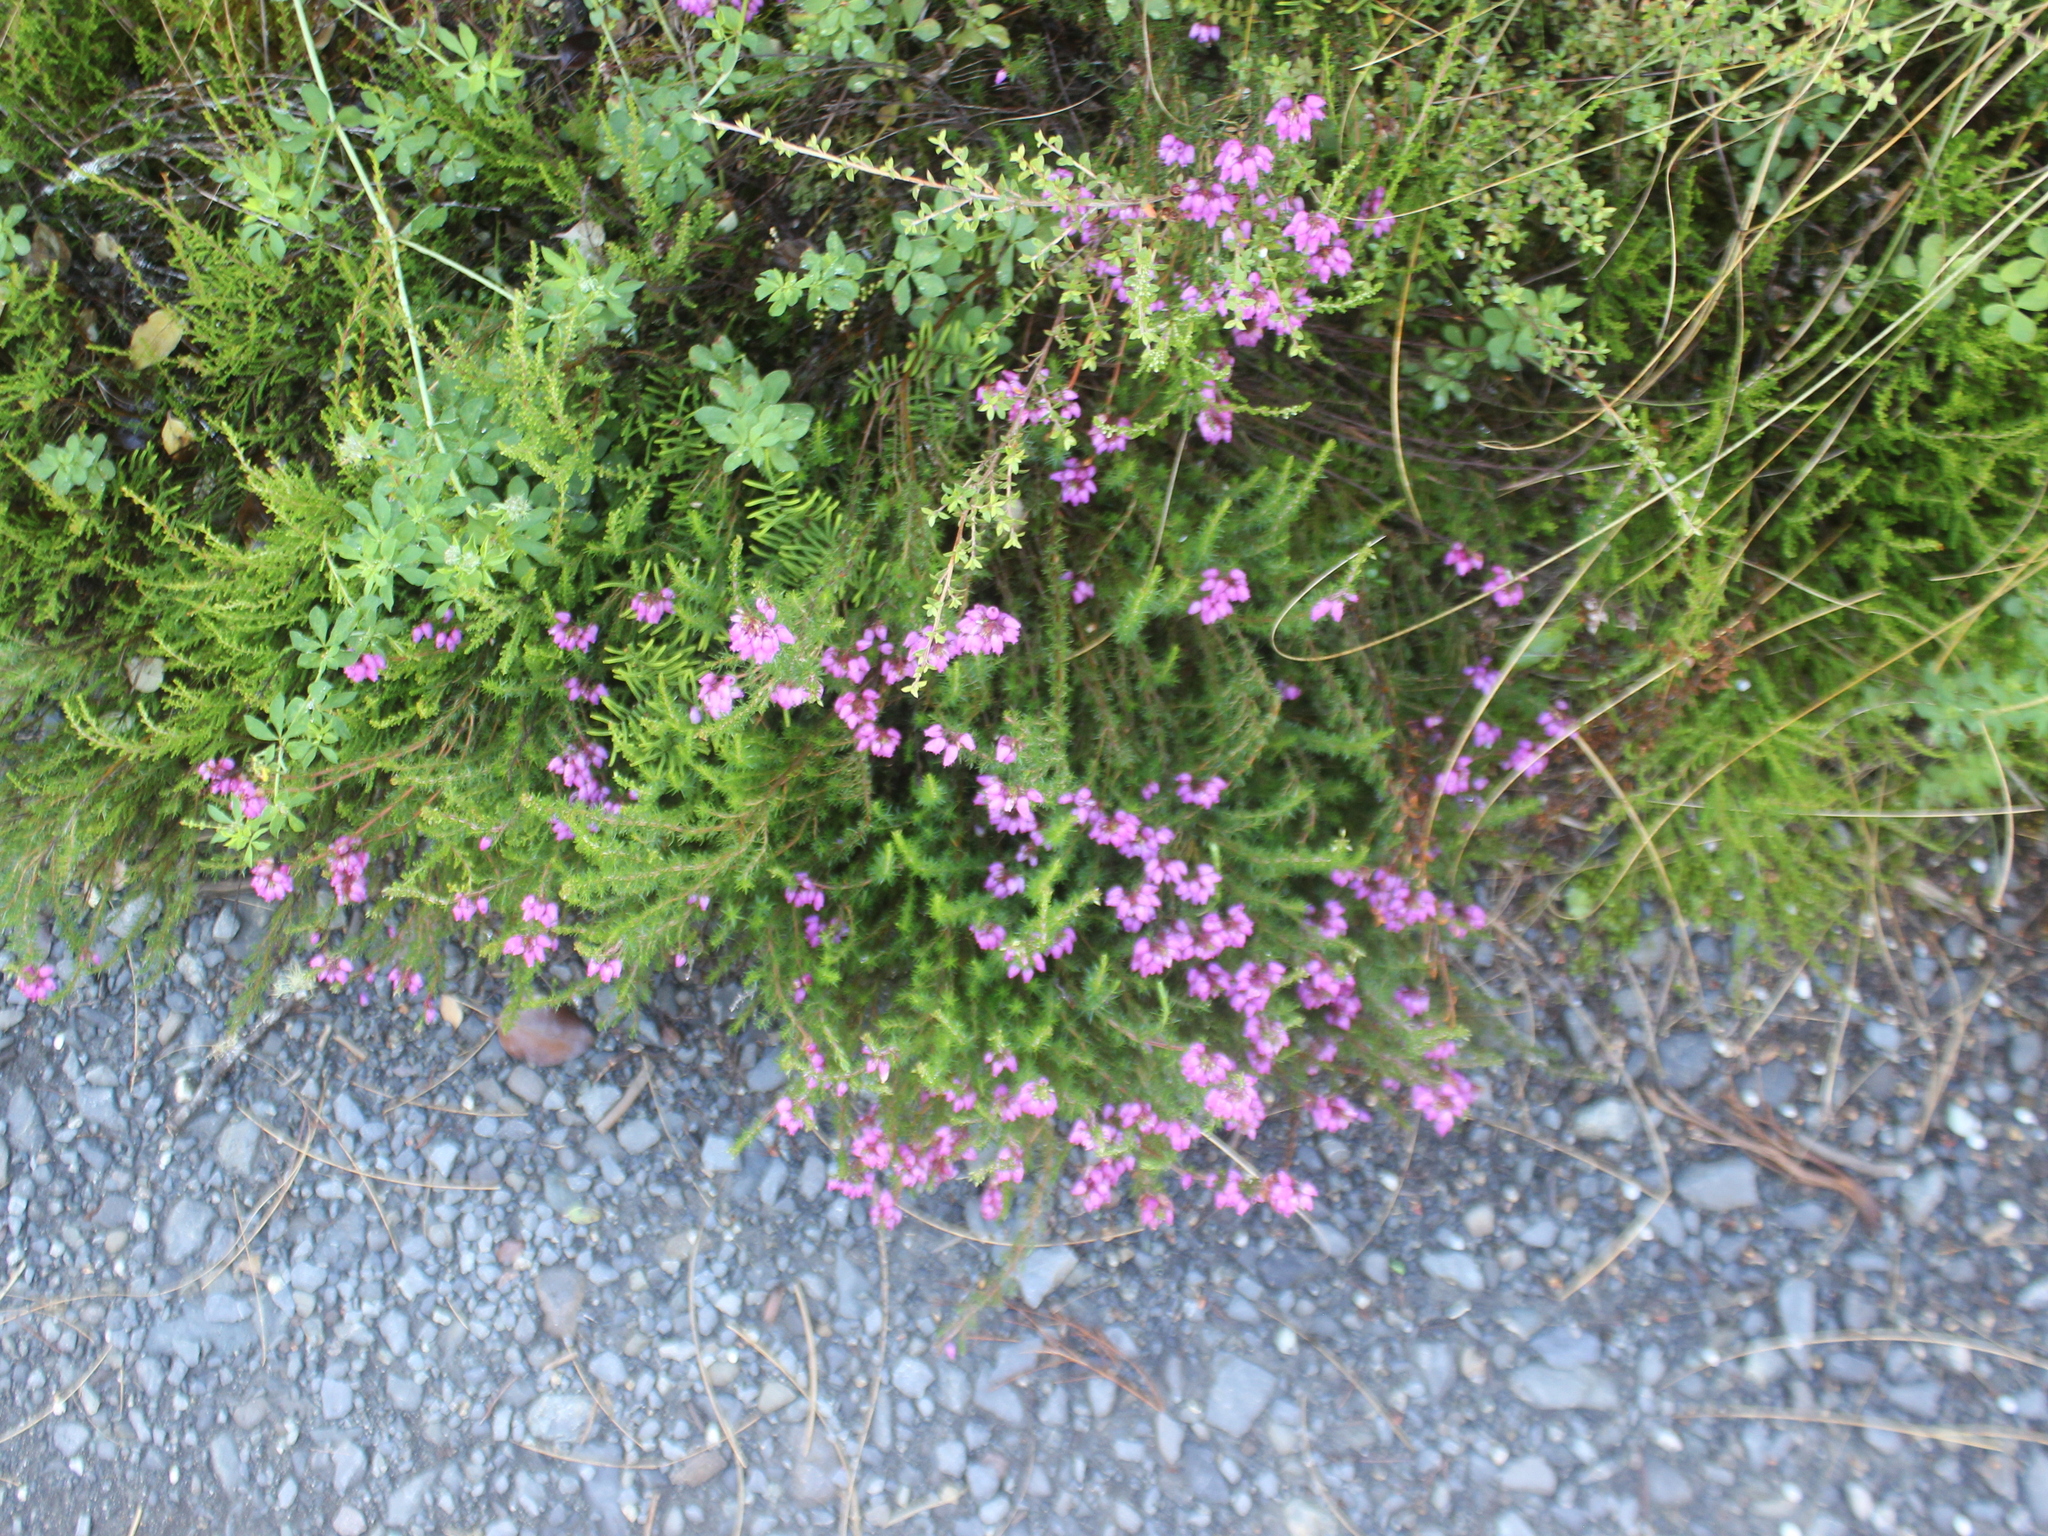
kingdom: Plantae
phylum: Tracheophyta
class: Magnoliopsida
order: Ericales
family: Ericaceae
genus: Erica
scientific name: Erica cinerea
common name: Bell heather
